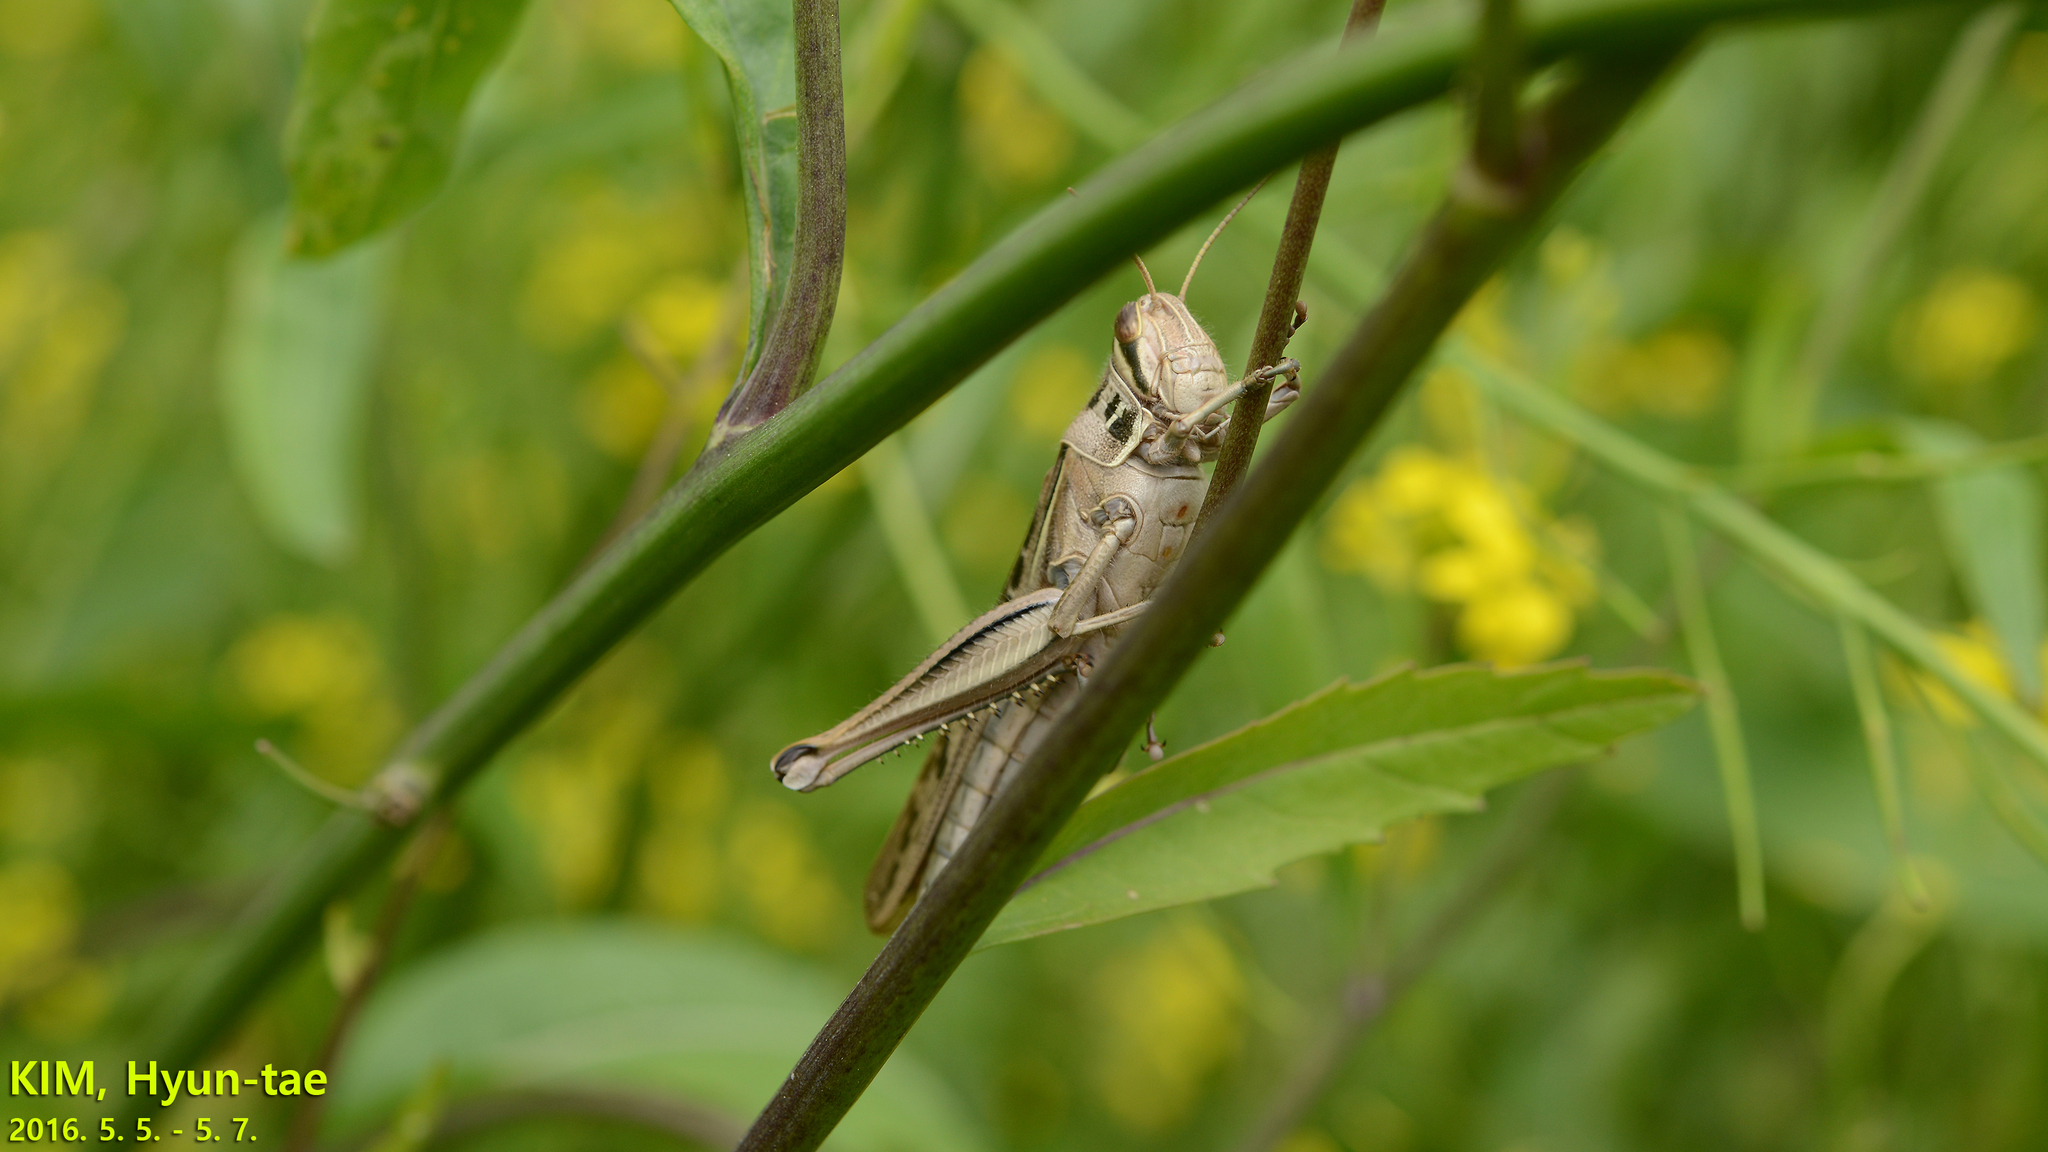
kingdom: Animalia
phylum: Arthropoda
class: Insecta
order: Orthoptera
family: Acrididae
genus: Patanga
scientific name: Patanga japonica
